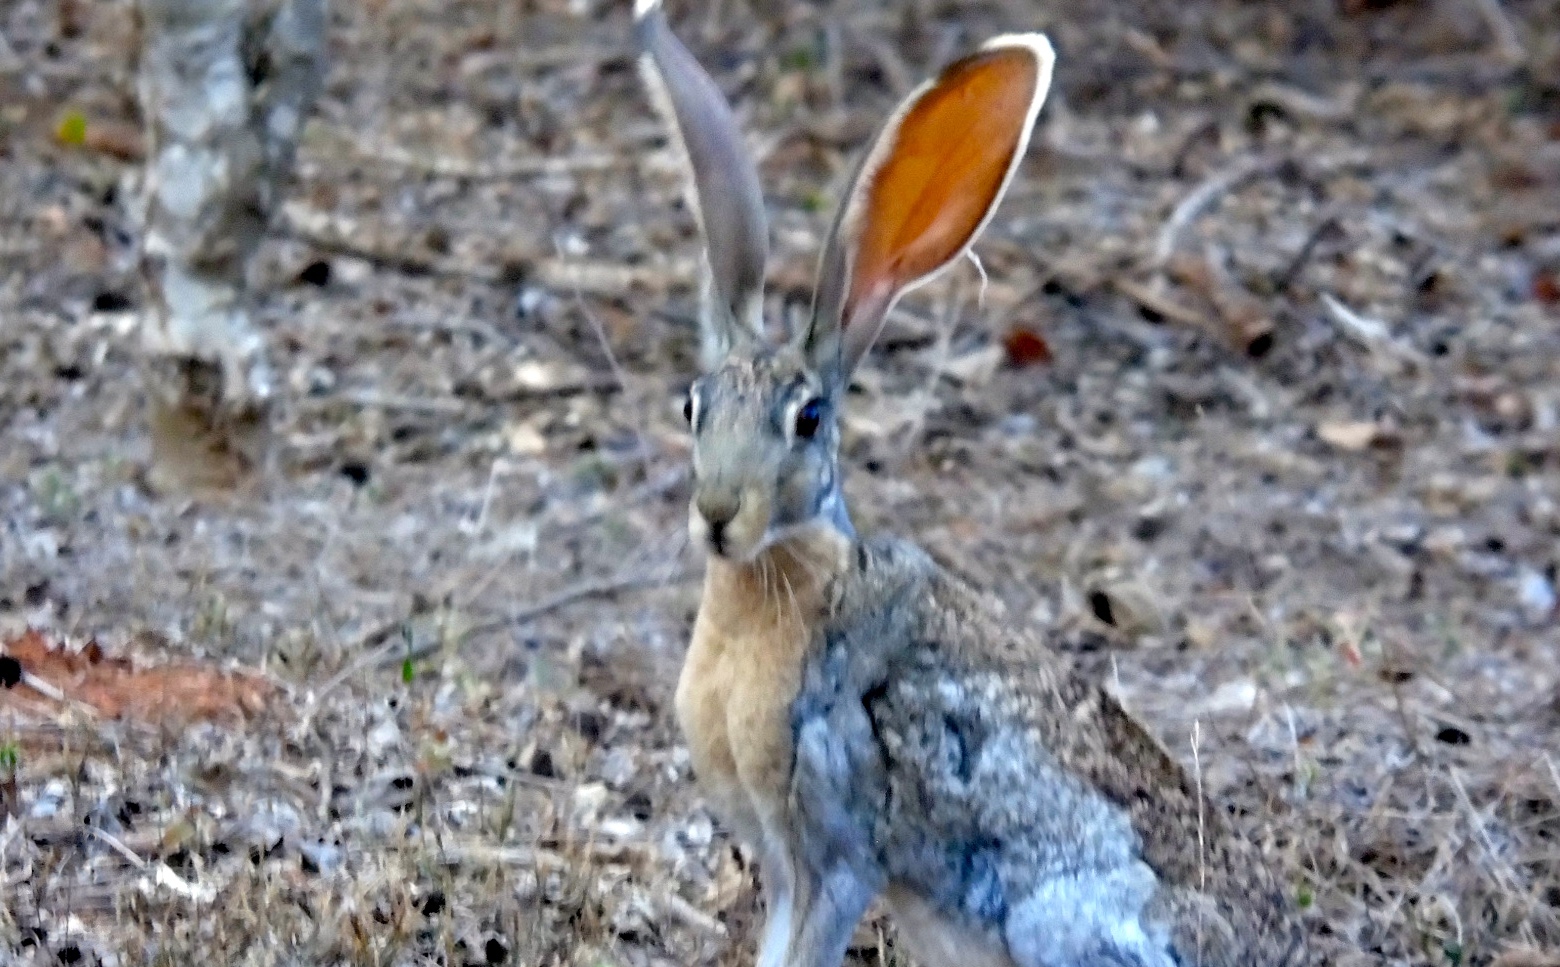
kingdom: Animalia
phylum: Chordata
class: Mammalia
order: Lagomorpha
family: Leporidae
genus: Lepus
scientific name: Lepus alleni
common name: Antelope jackrabbit
